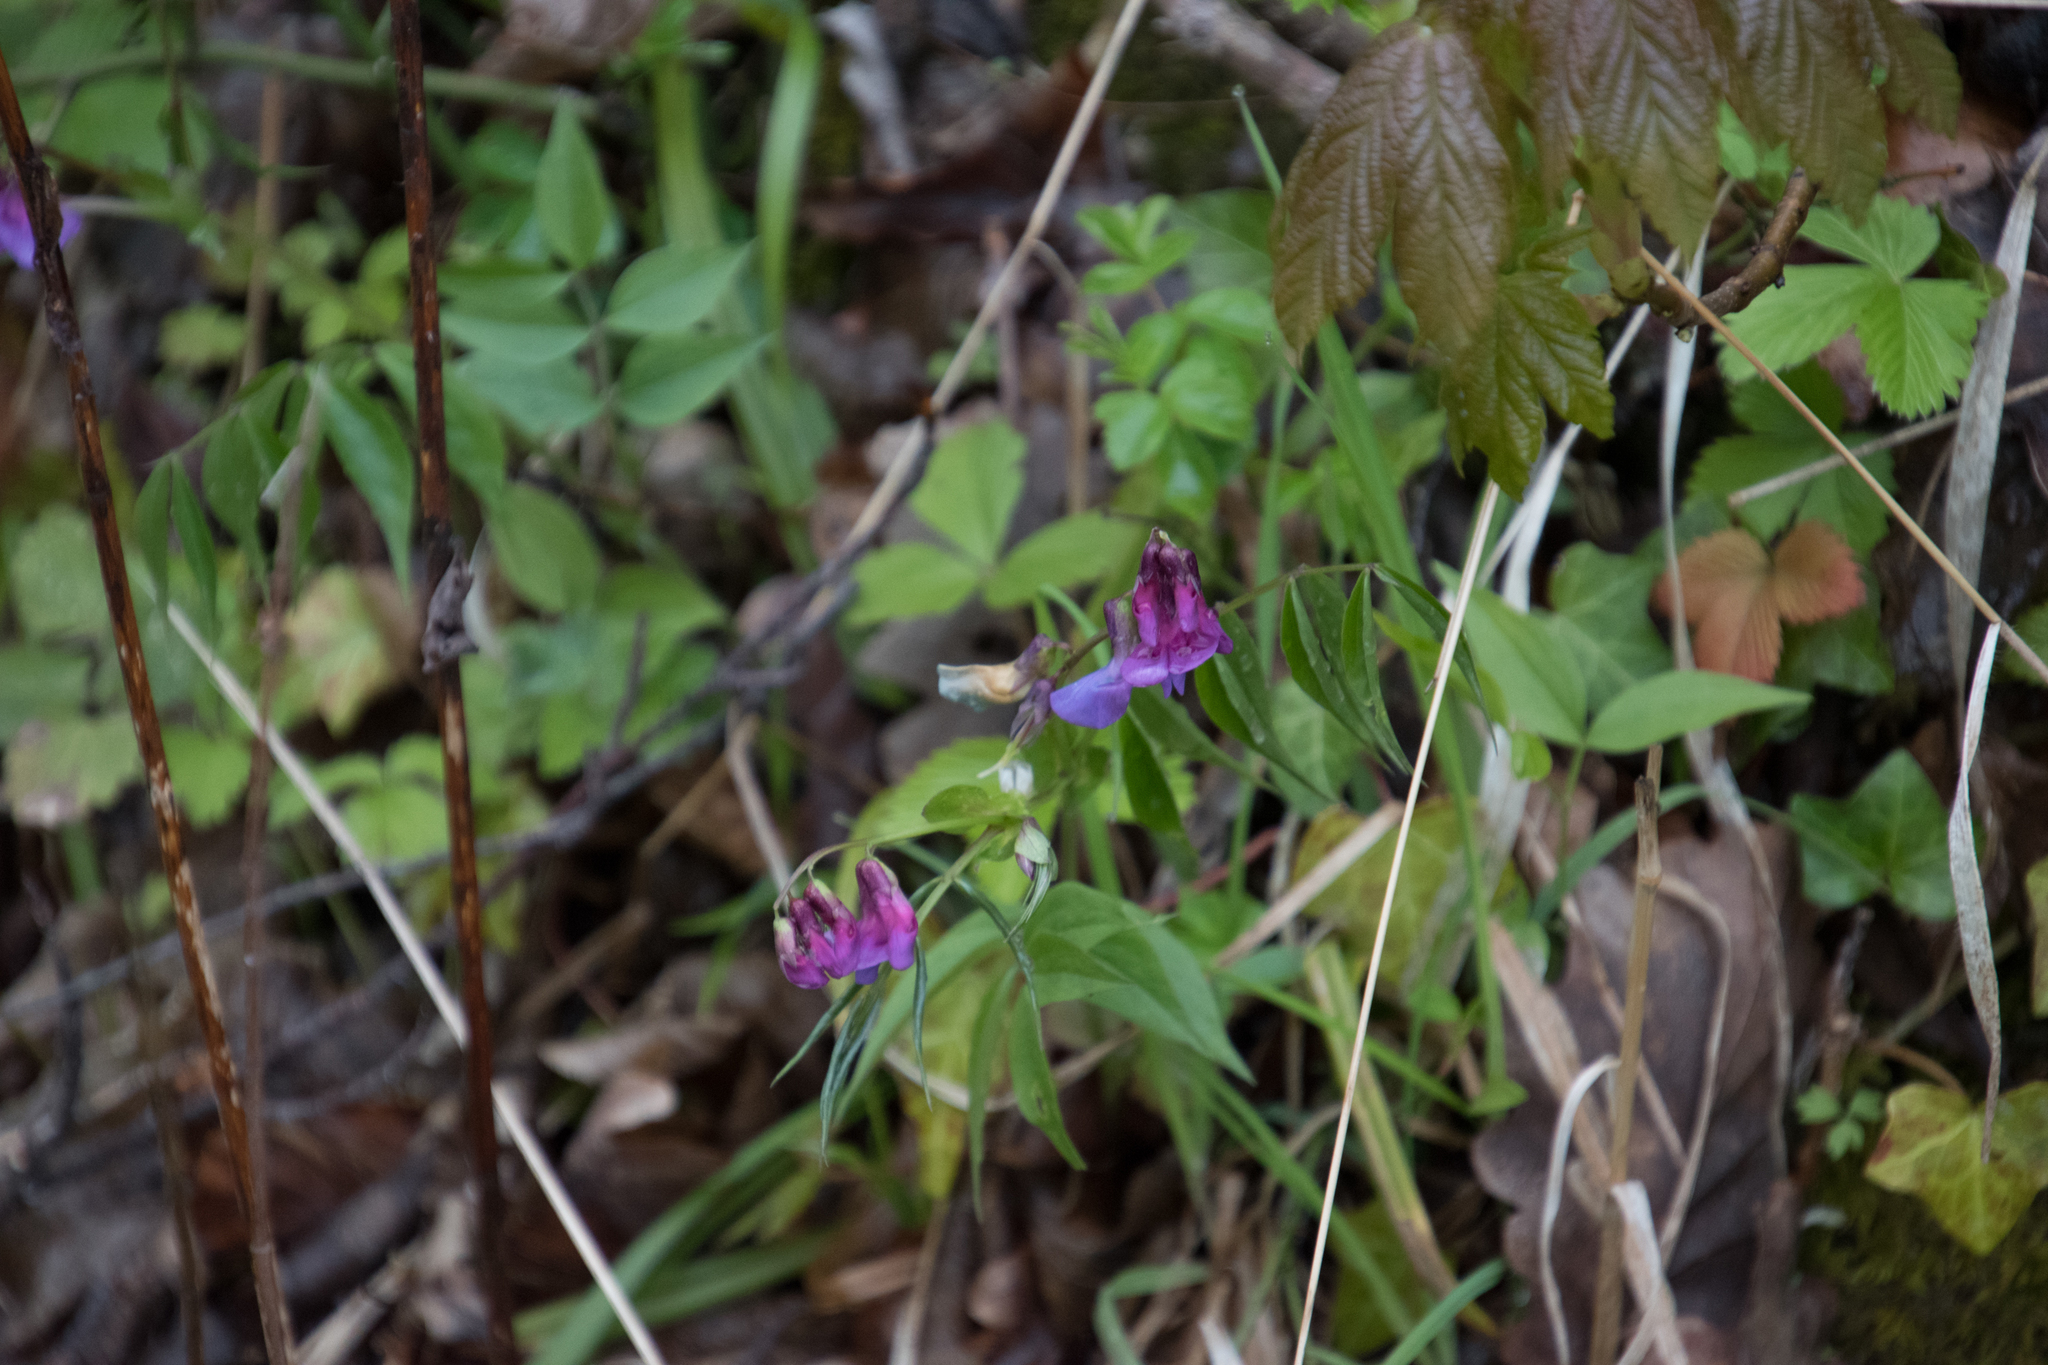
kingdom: Plantae
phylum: Tracheophyta
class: Magnoliopsida
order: Fabales
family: Fabaceae
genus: Lathyrus
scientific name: Lathyrus vernus
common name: Spring pea
